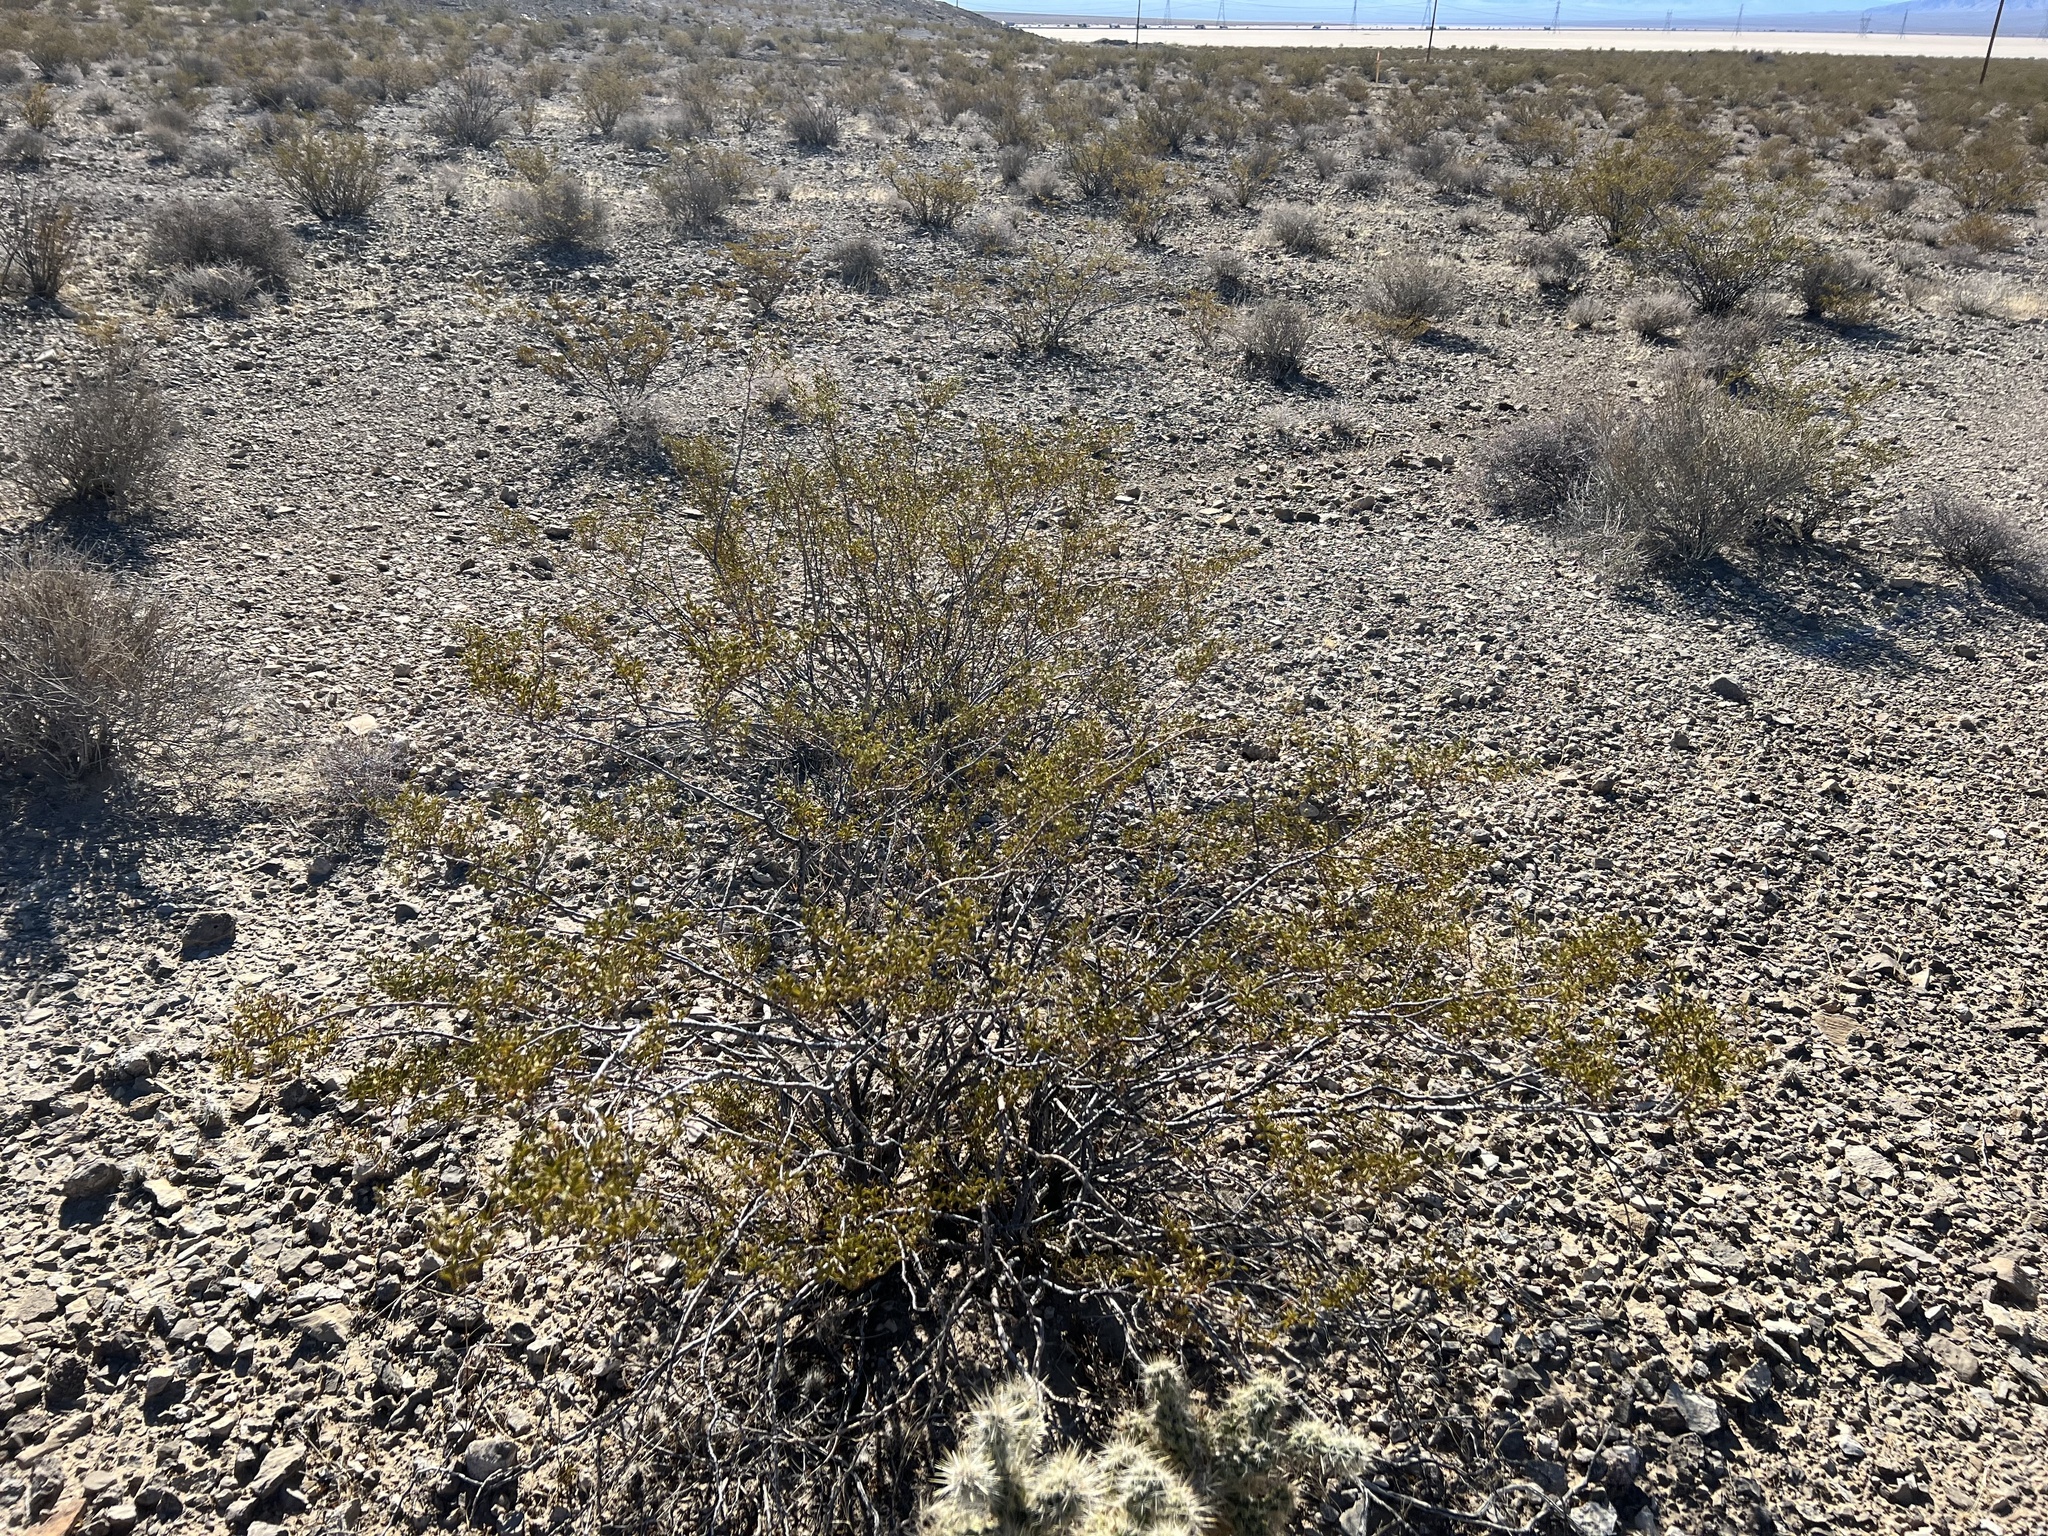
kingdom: Plantae
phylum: Tracheophyta
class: Magnoliopsida
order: Zygophyllales
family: Zygophyllaceae
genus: Larrea
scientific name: Larrea tridentata
